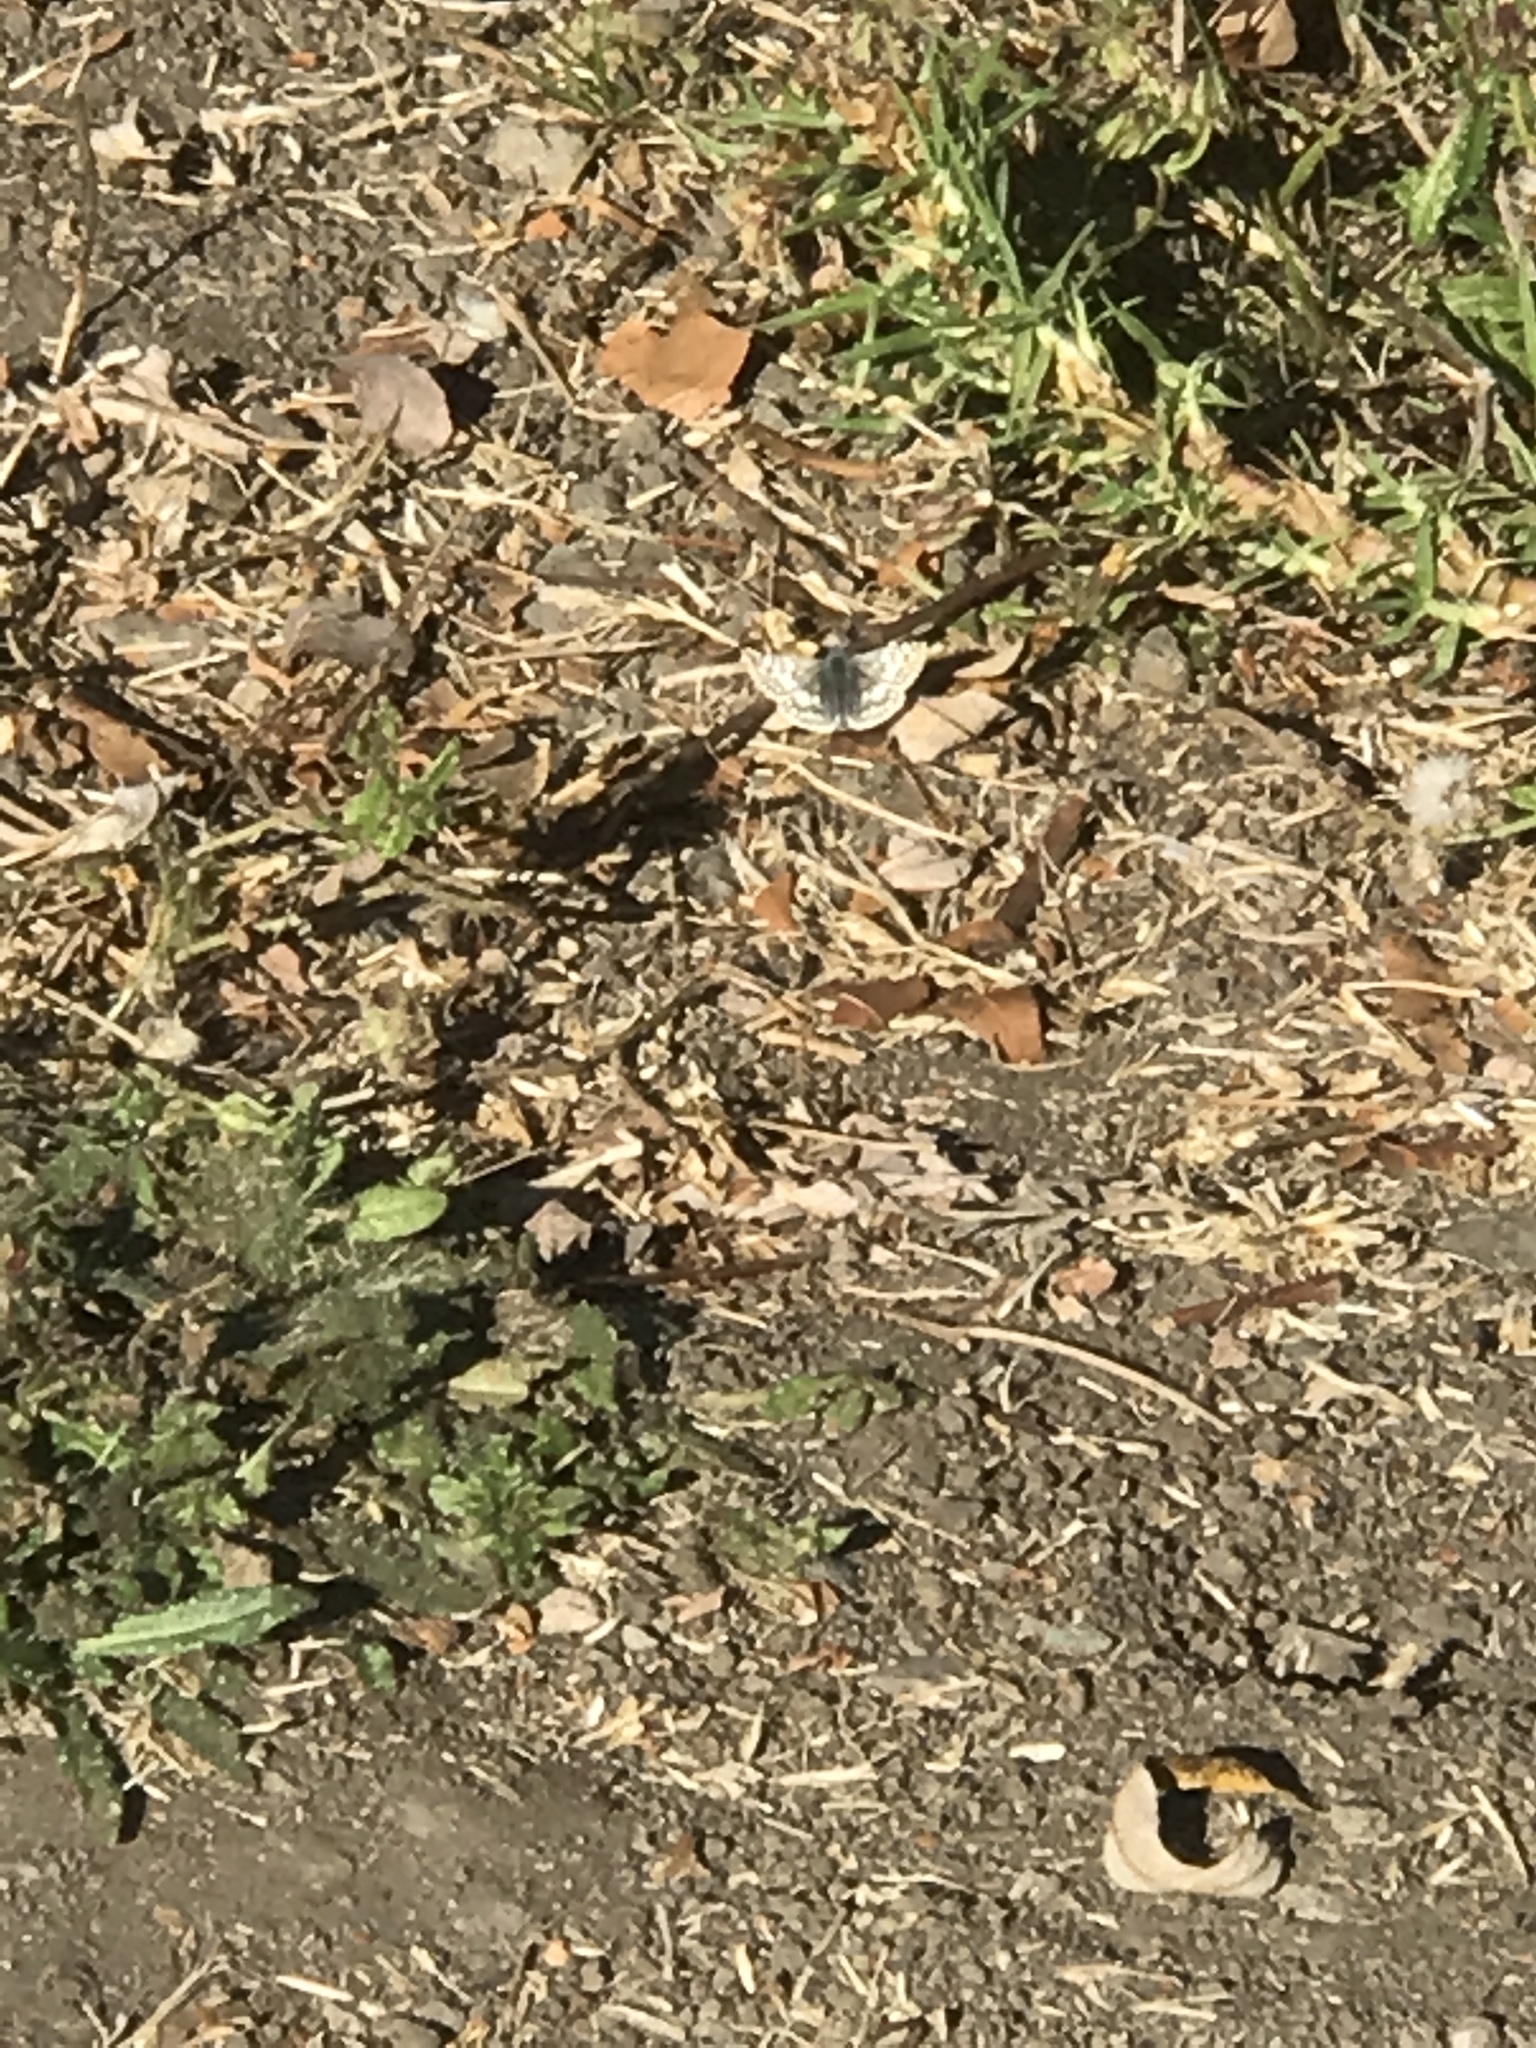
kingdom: Animalia
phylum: Arthropoda
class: Insecta
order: Lepidoptera
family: Hesperiidae
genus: Burnsius
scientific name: Burnsius communis
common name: Common checkered-skipper
